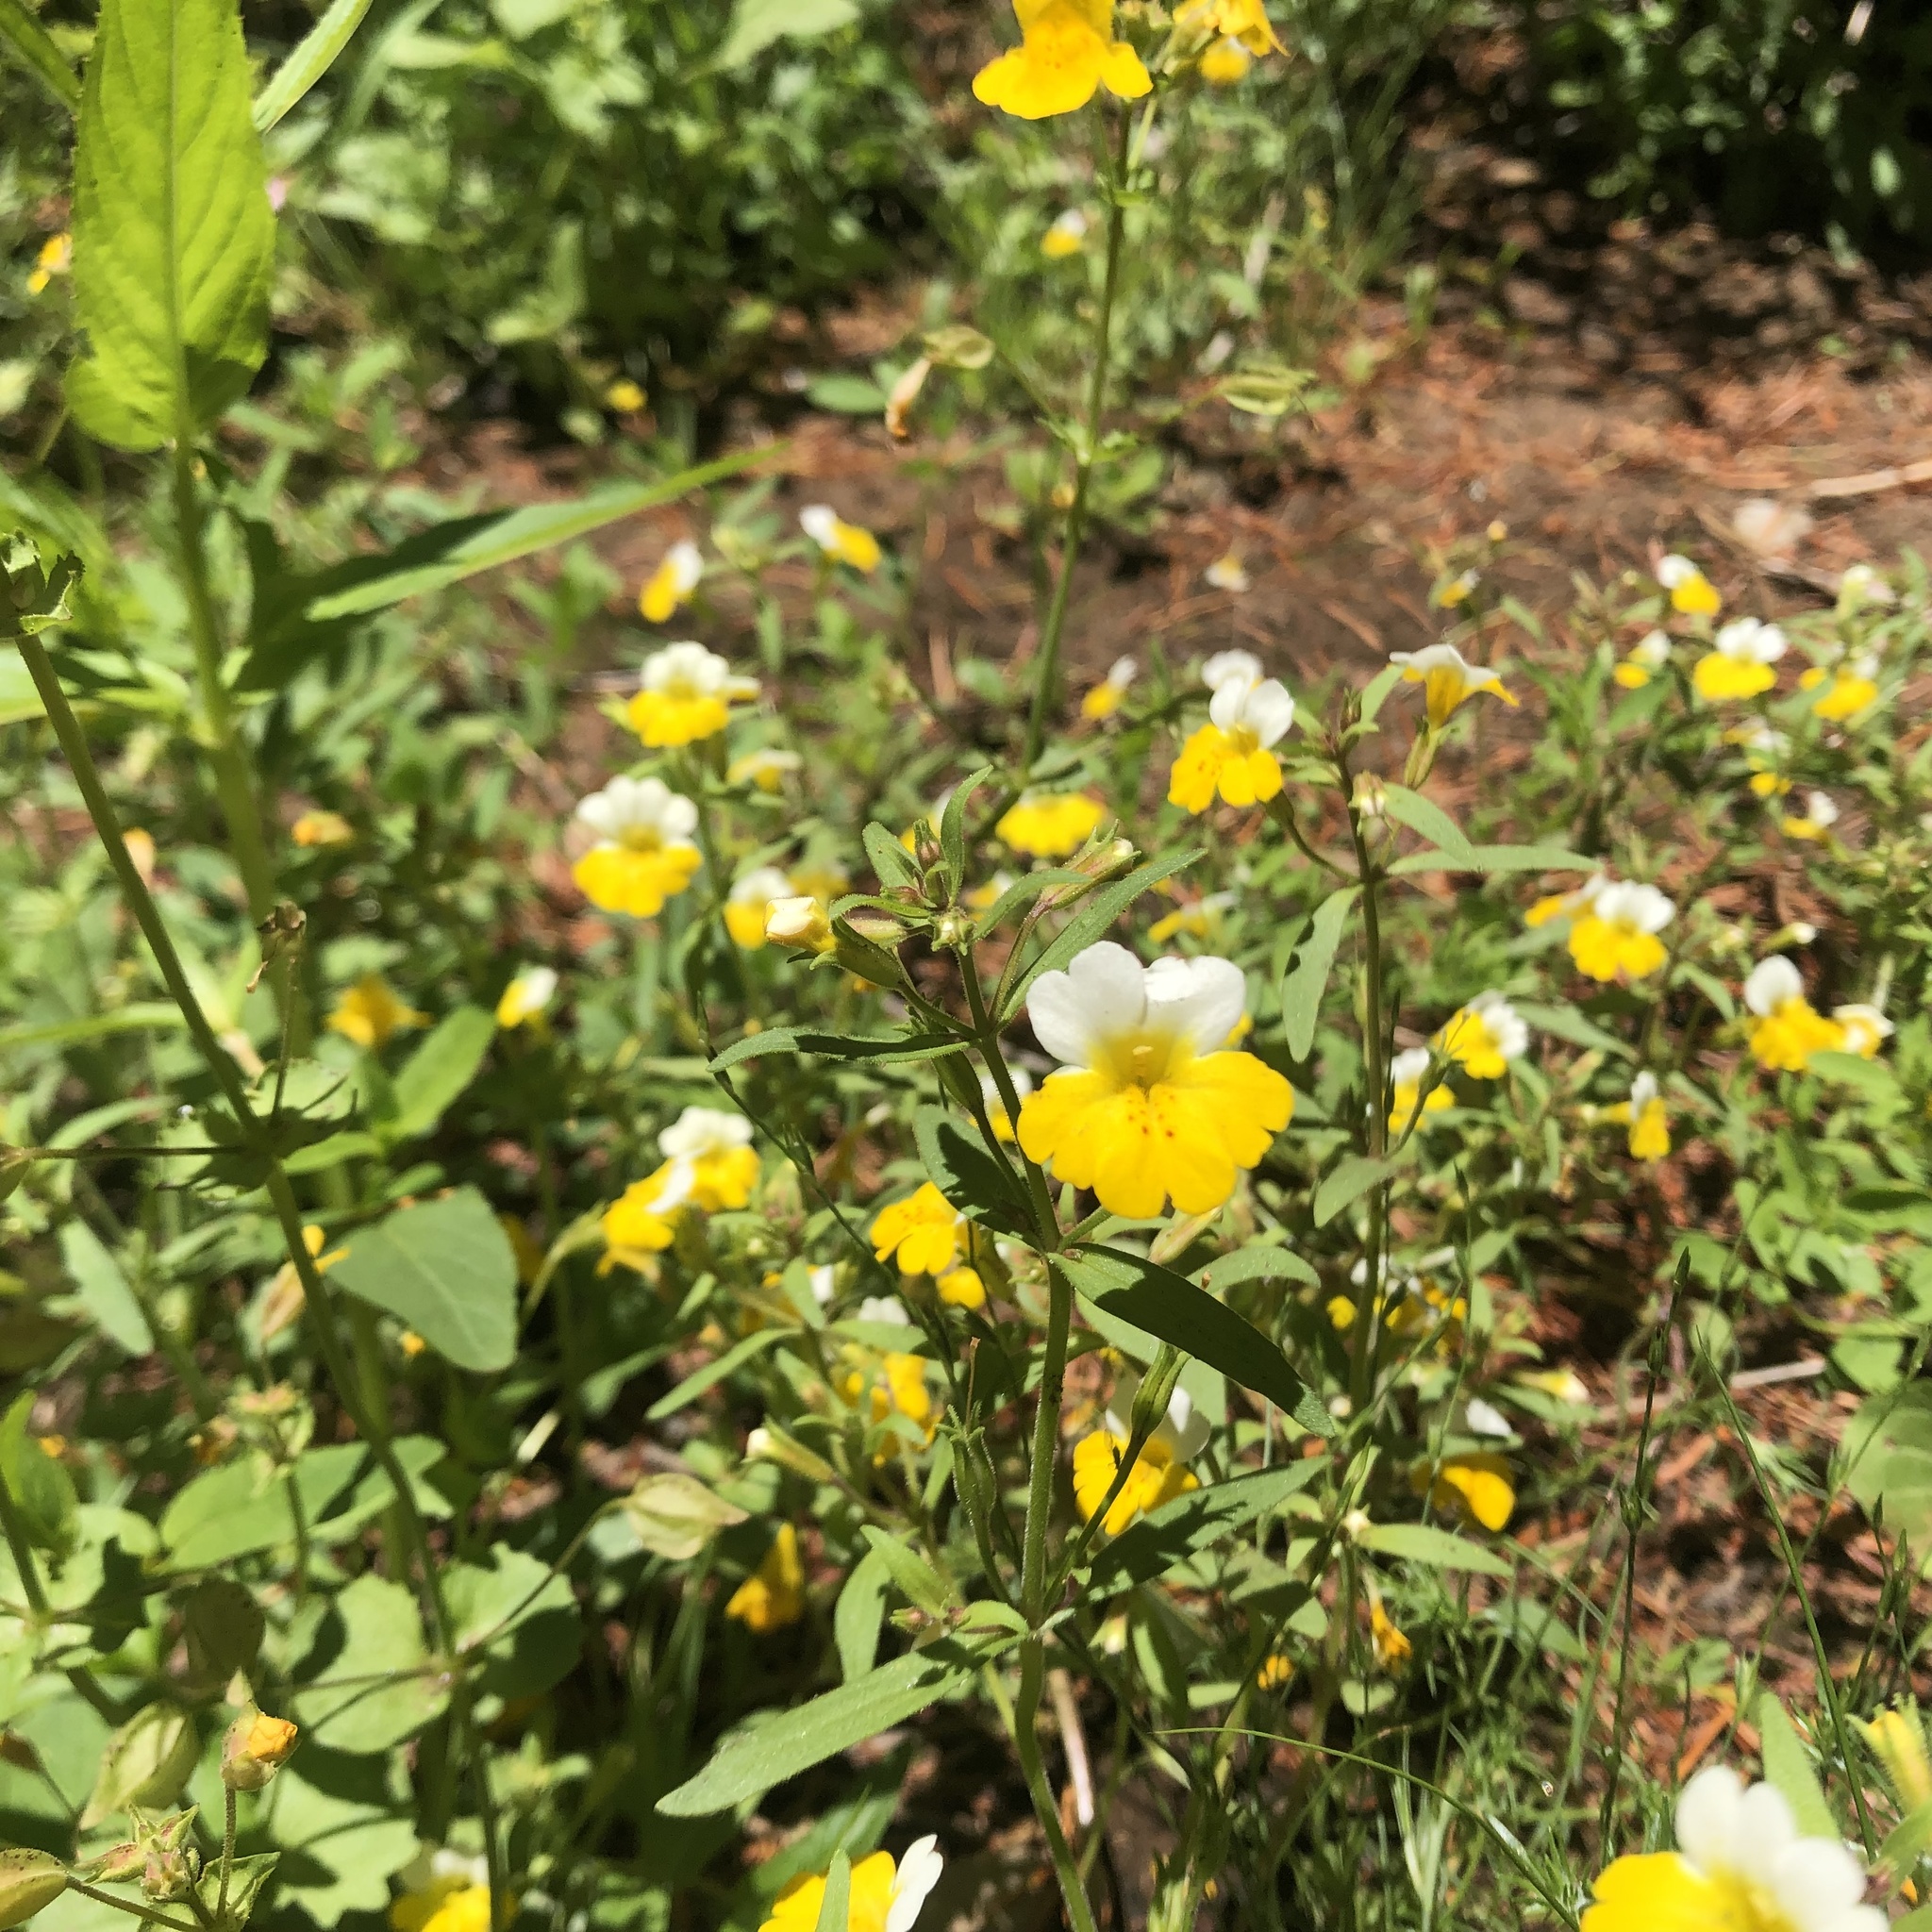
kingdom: Plantae
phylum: Tracheophyta
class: Magnoliopsida
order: Lamiales
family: Phrymaceae
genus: Erythranthe
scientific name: Erythranthe bicolor
